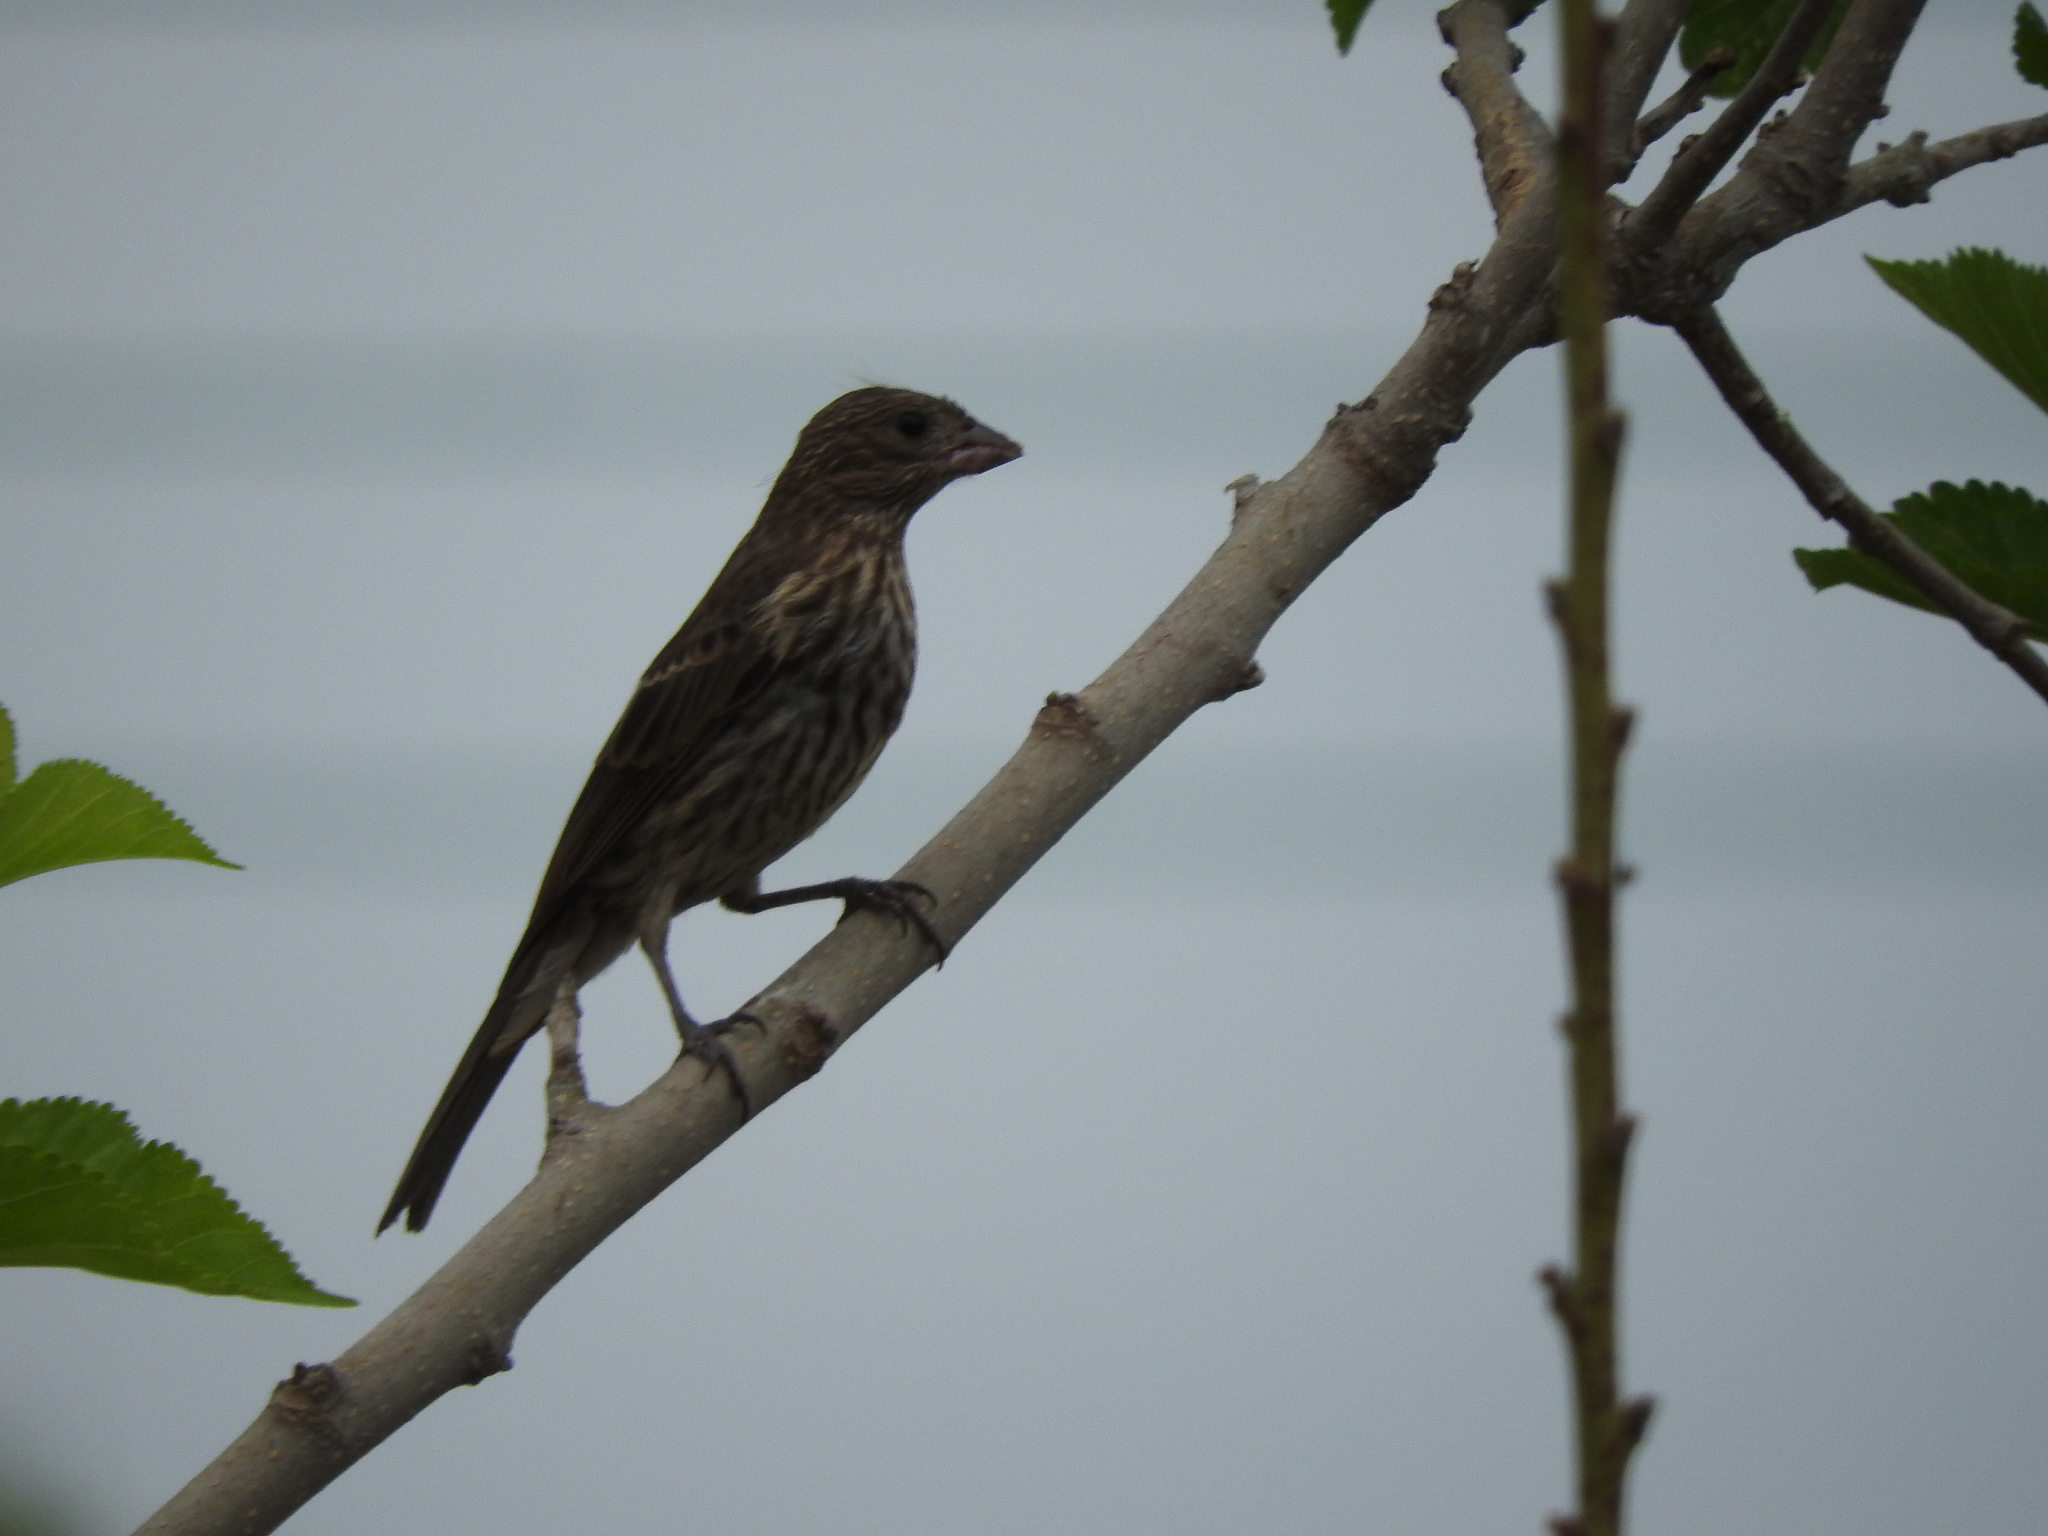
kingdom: Animalia
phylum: Chordata
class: Aves
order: Passeriformes
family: Fringillidae
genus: Haemorhous
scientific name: Haemorhous mexicanus
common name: House finch
